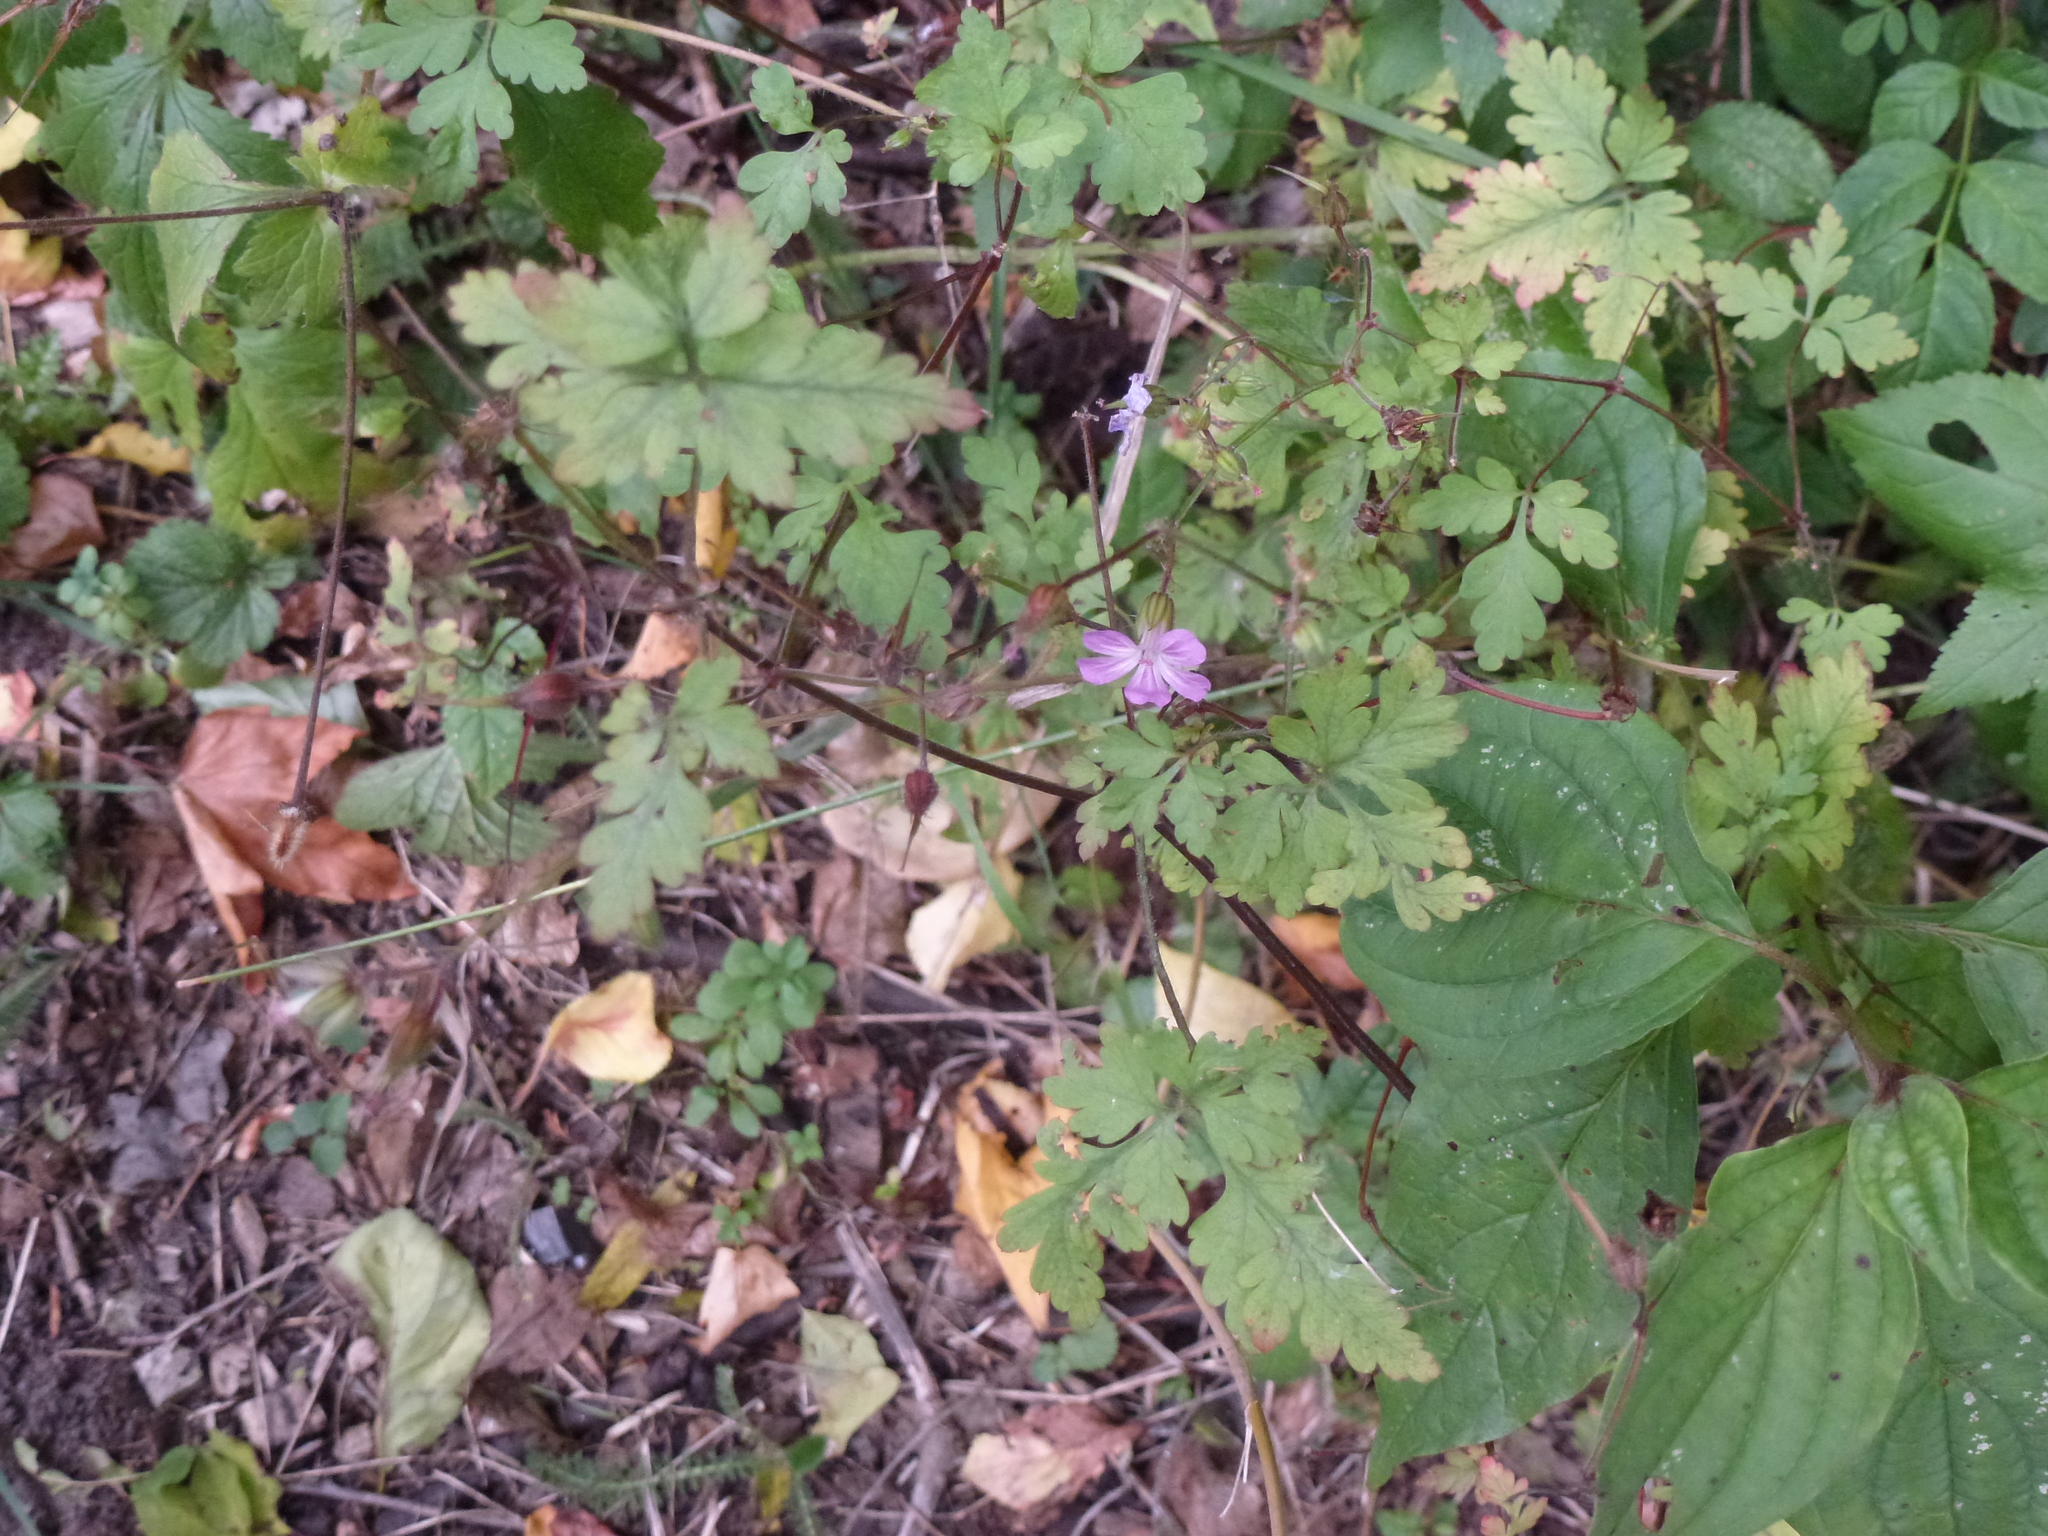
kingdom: Plantae
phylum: Tracheophyta
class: Magnoliopsida
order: Geraniales
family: Geraniaceae
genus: Geranium
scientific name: Geranium robertianum
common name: Herb-robert
